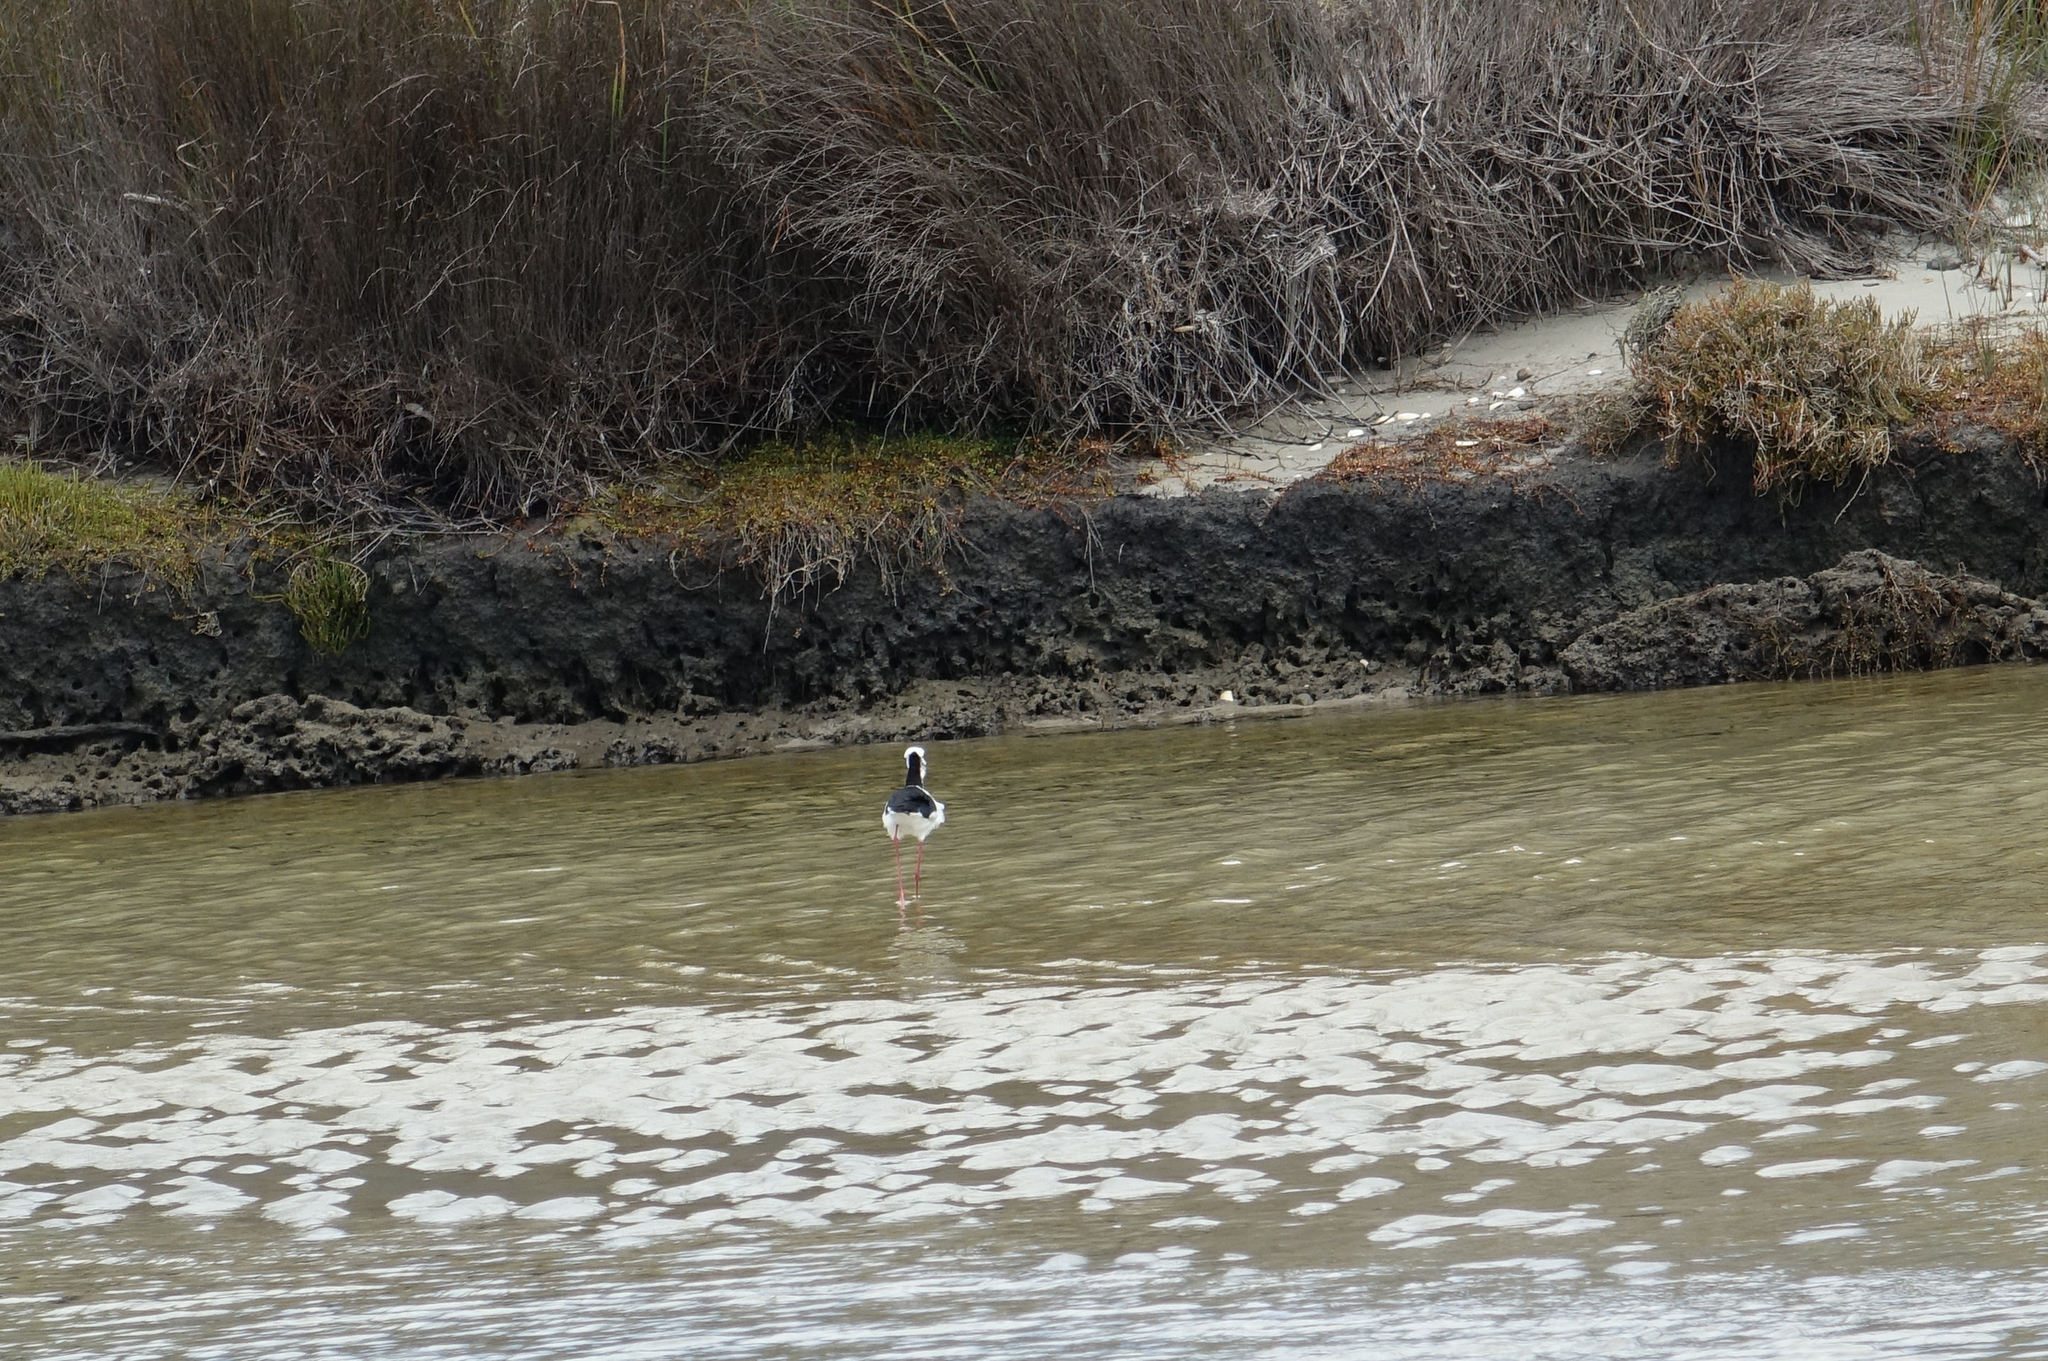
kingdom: Animalia
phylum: Chordata
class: Aves
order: Charadriiformes
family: Recurvirostridae
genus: Himantopus
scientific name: Himantopus leucocephalus
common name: White-headed stilt
